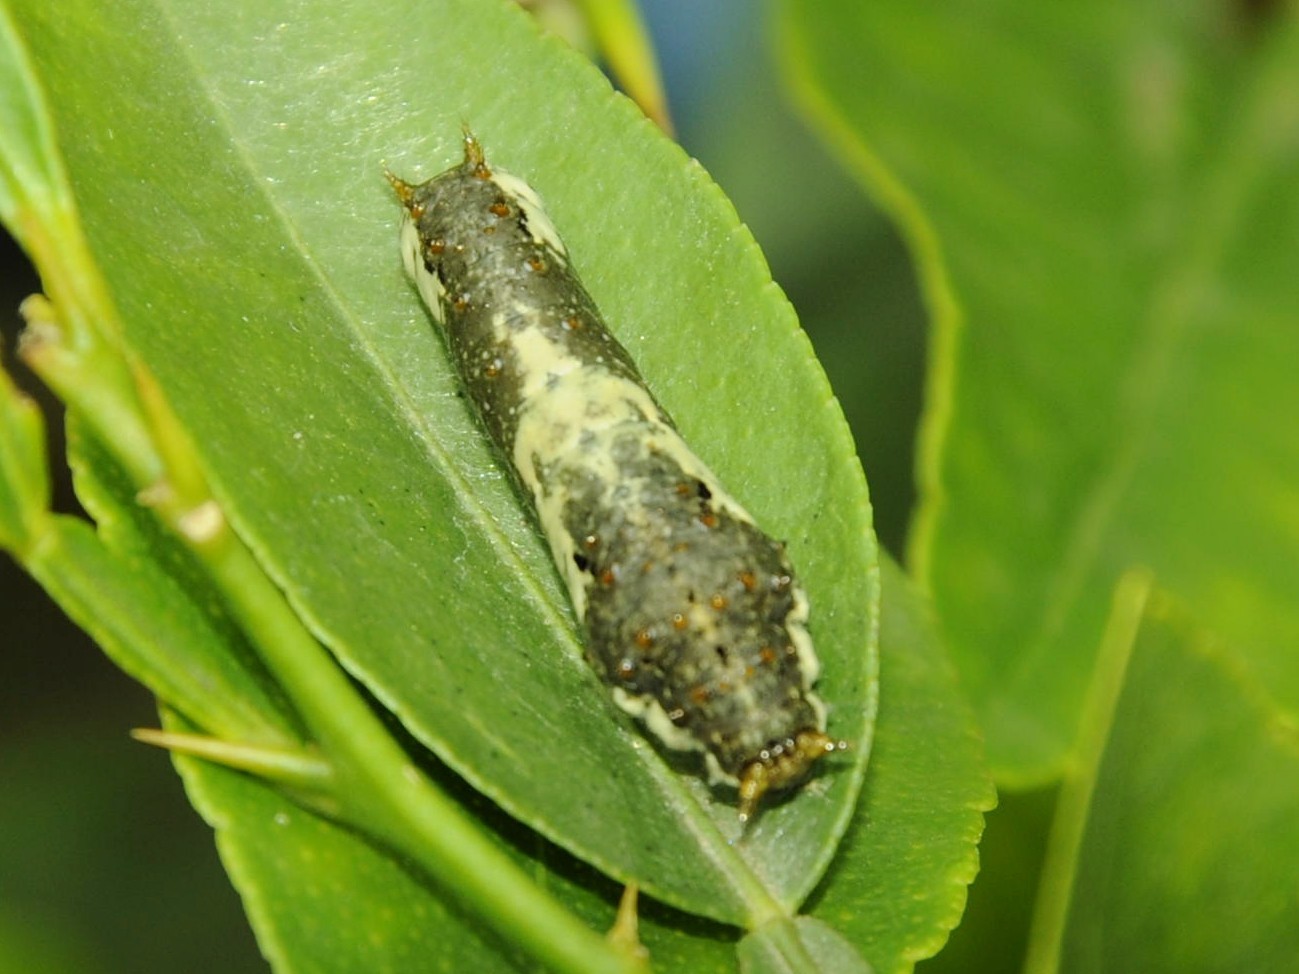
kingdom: Animalia
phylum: Arthropoda
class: Insecta
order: Lepidoptera
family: Papilionidae
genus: Papilio
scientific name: Papilio demoleus
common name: Lime butterfly
